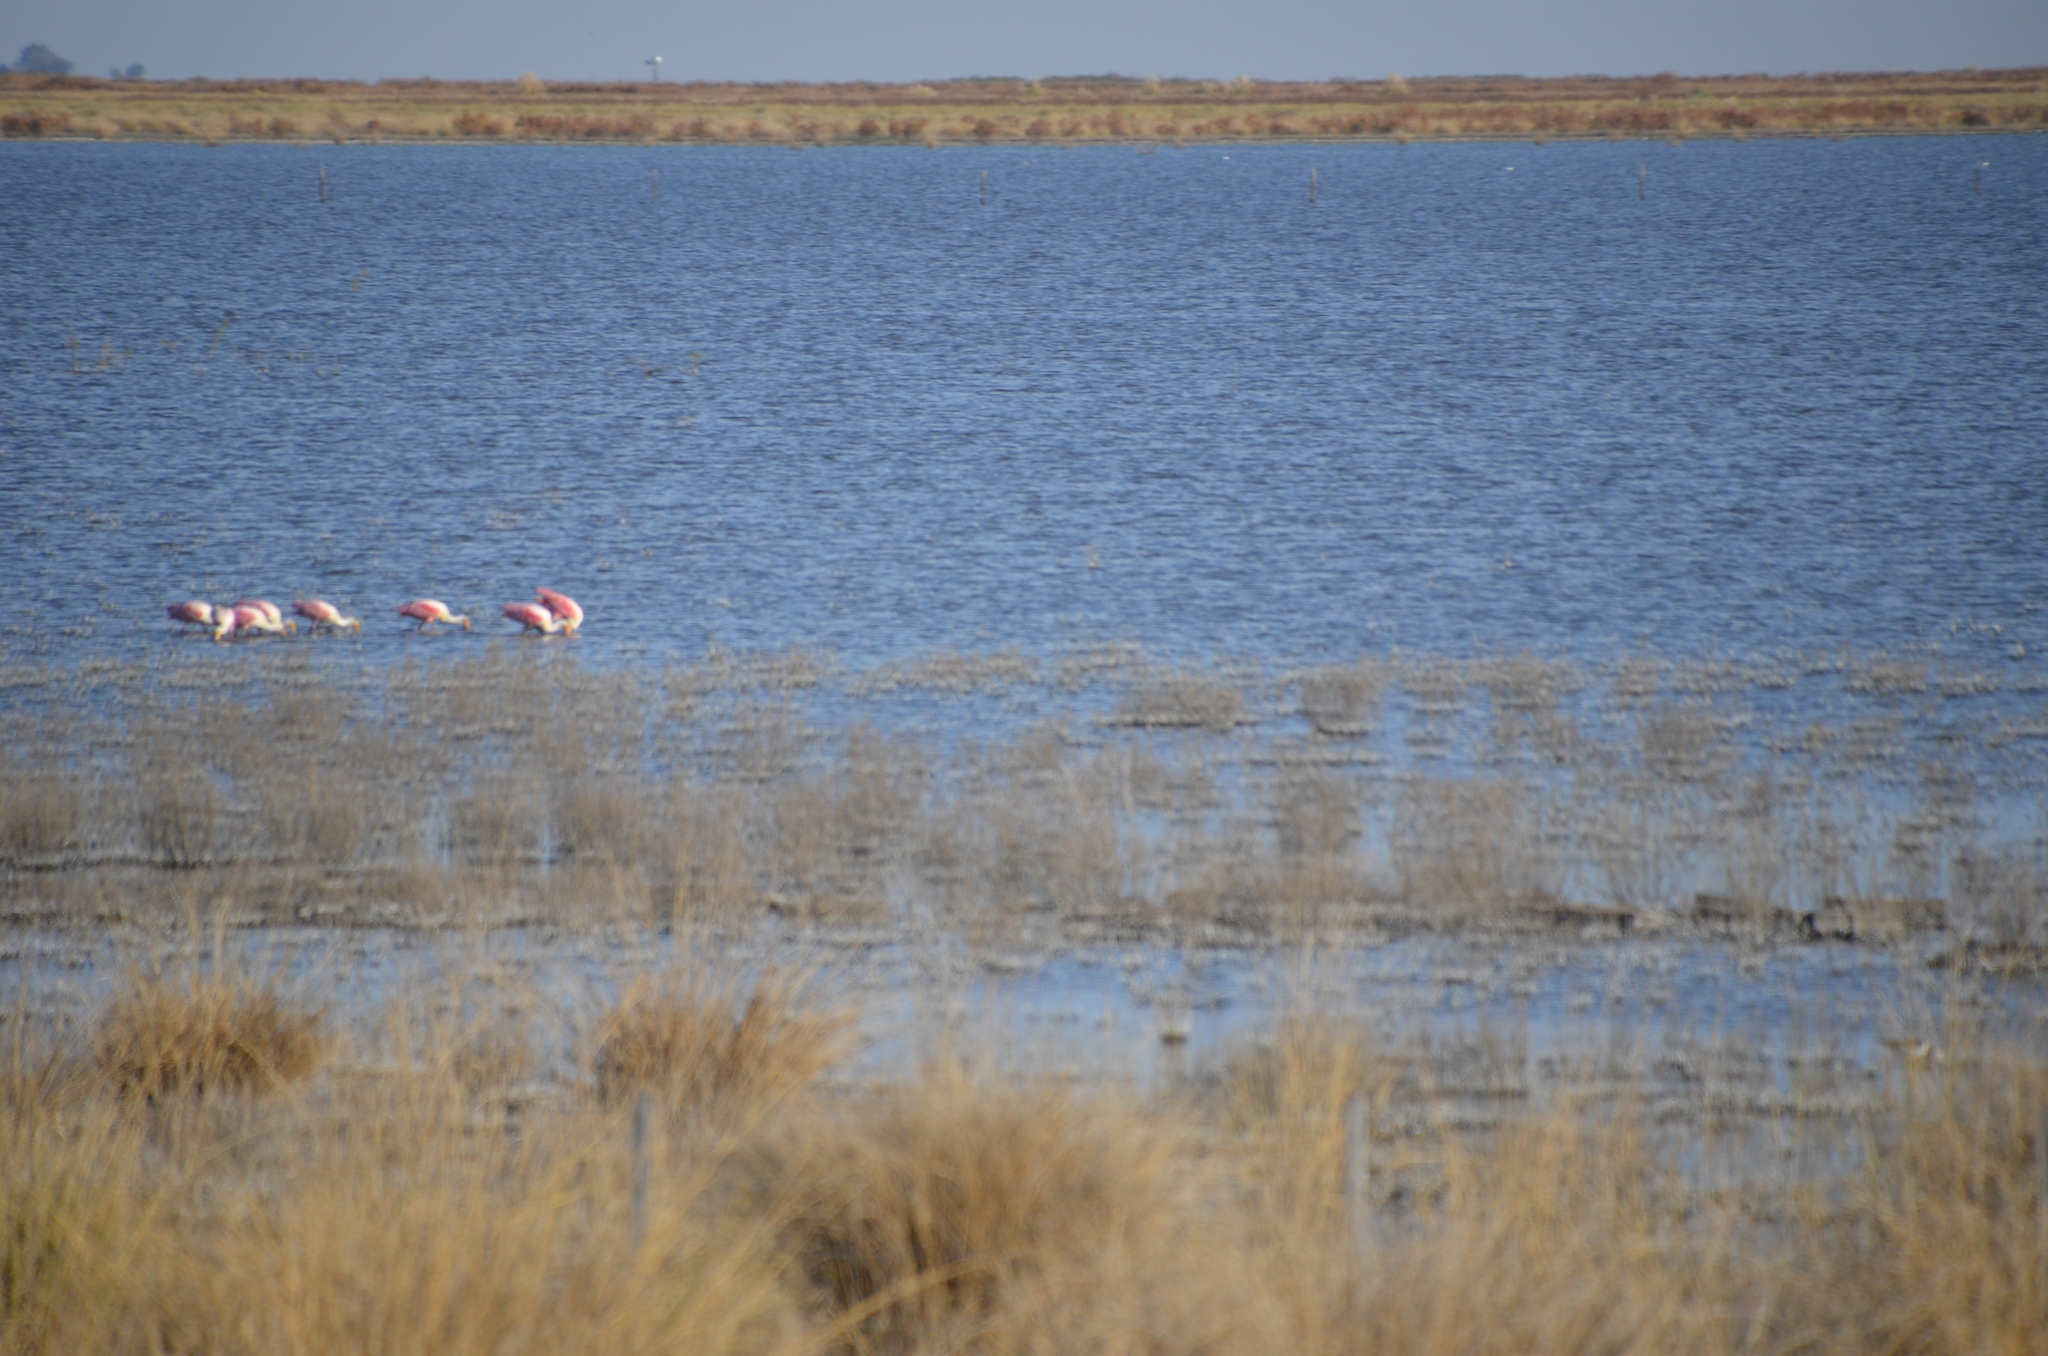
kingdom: Animalia
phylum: Chordata
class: Aves
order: Phoenicopteriformes
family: Phoenicopteridae
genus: Phoenicopterus
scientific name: Phoenicopterus chilensis
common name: Chilean flamingo
